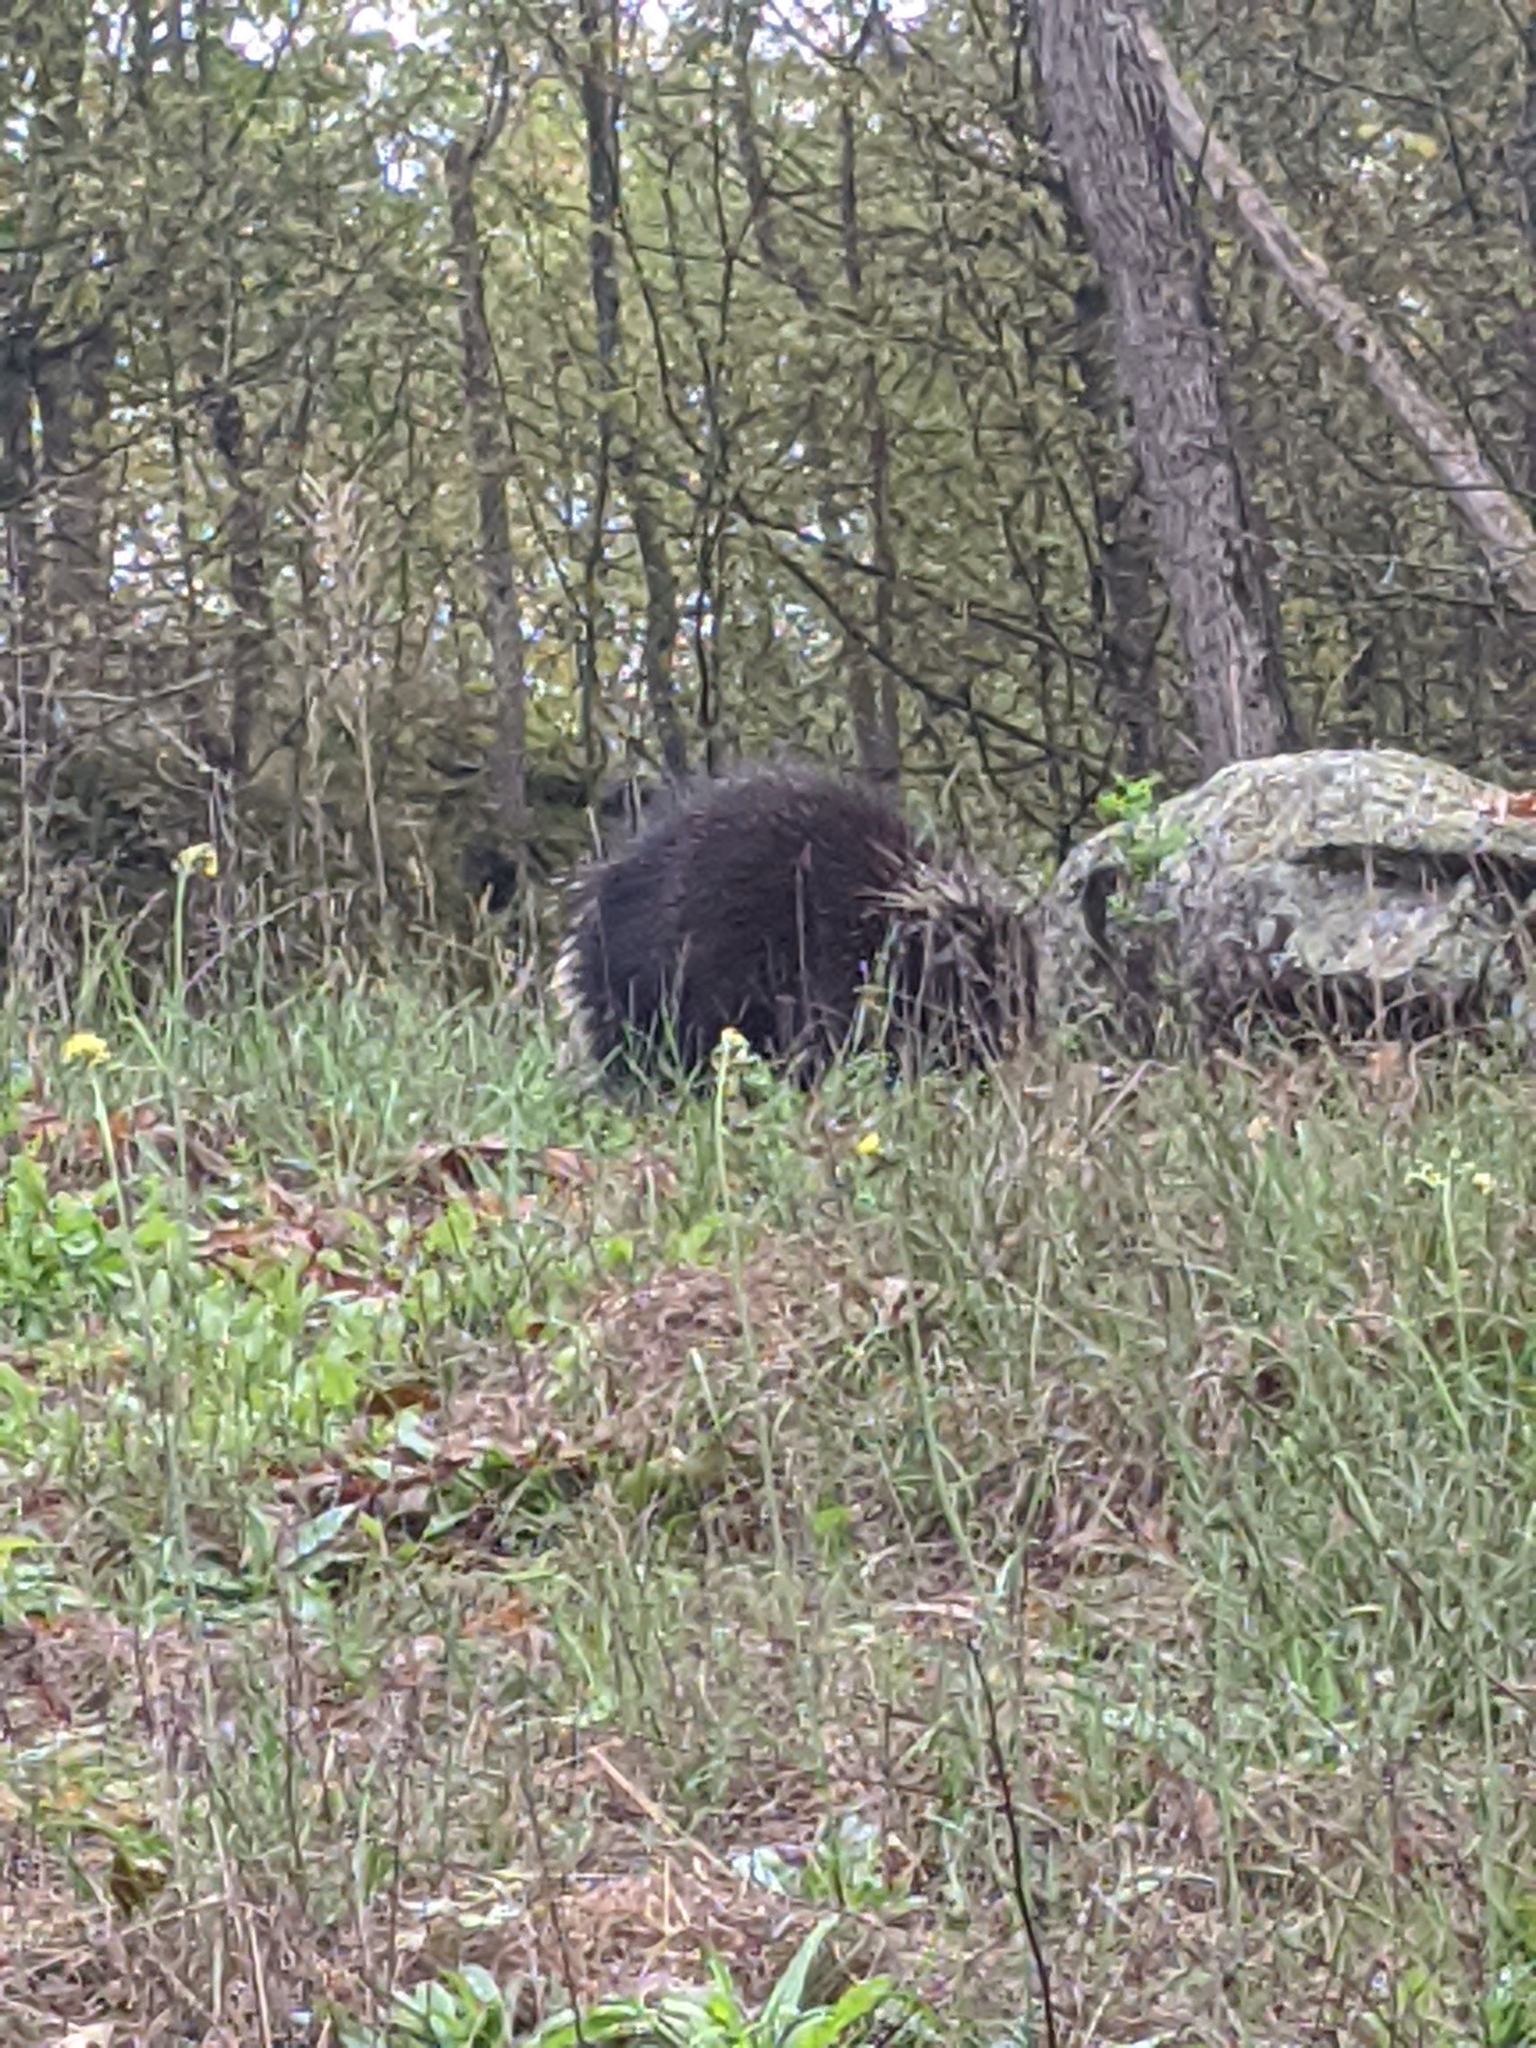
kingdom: Animalia
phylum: Chordata
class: Mammalia
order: Rodentia
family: Erethizontidae
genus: Erethizon
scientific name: Erethizon dorsatus
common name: North american porcupine
